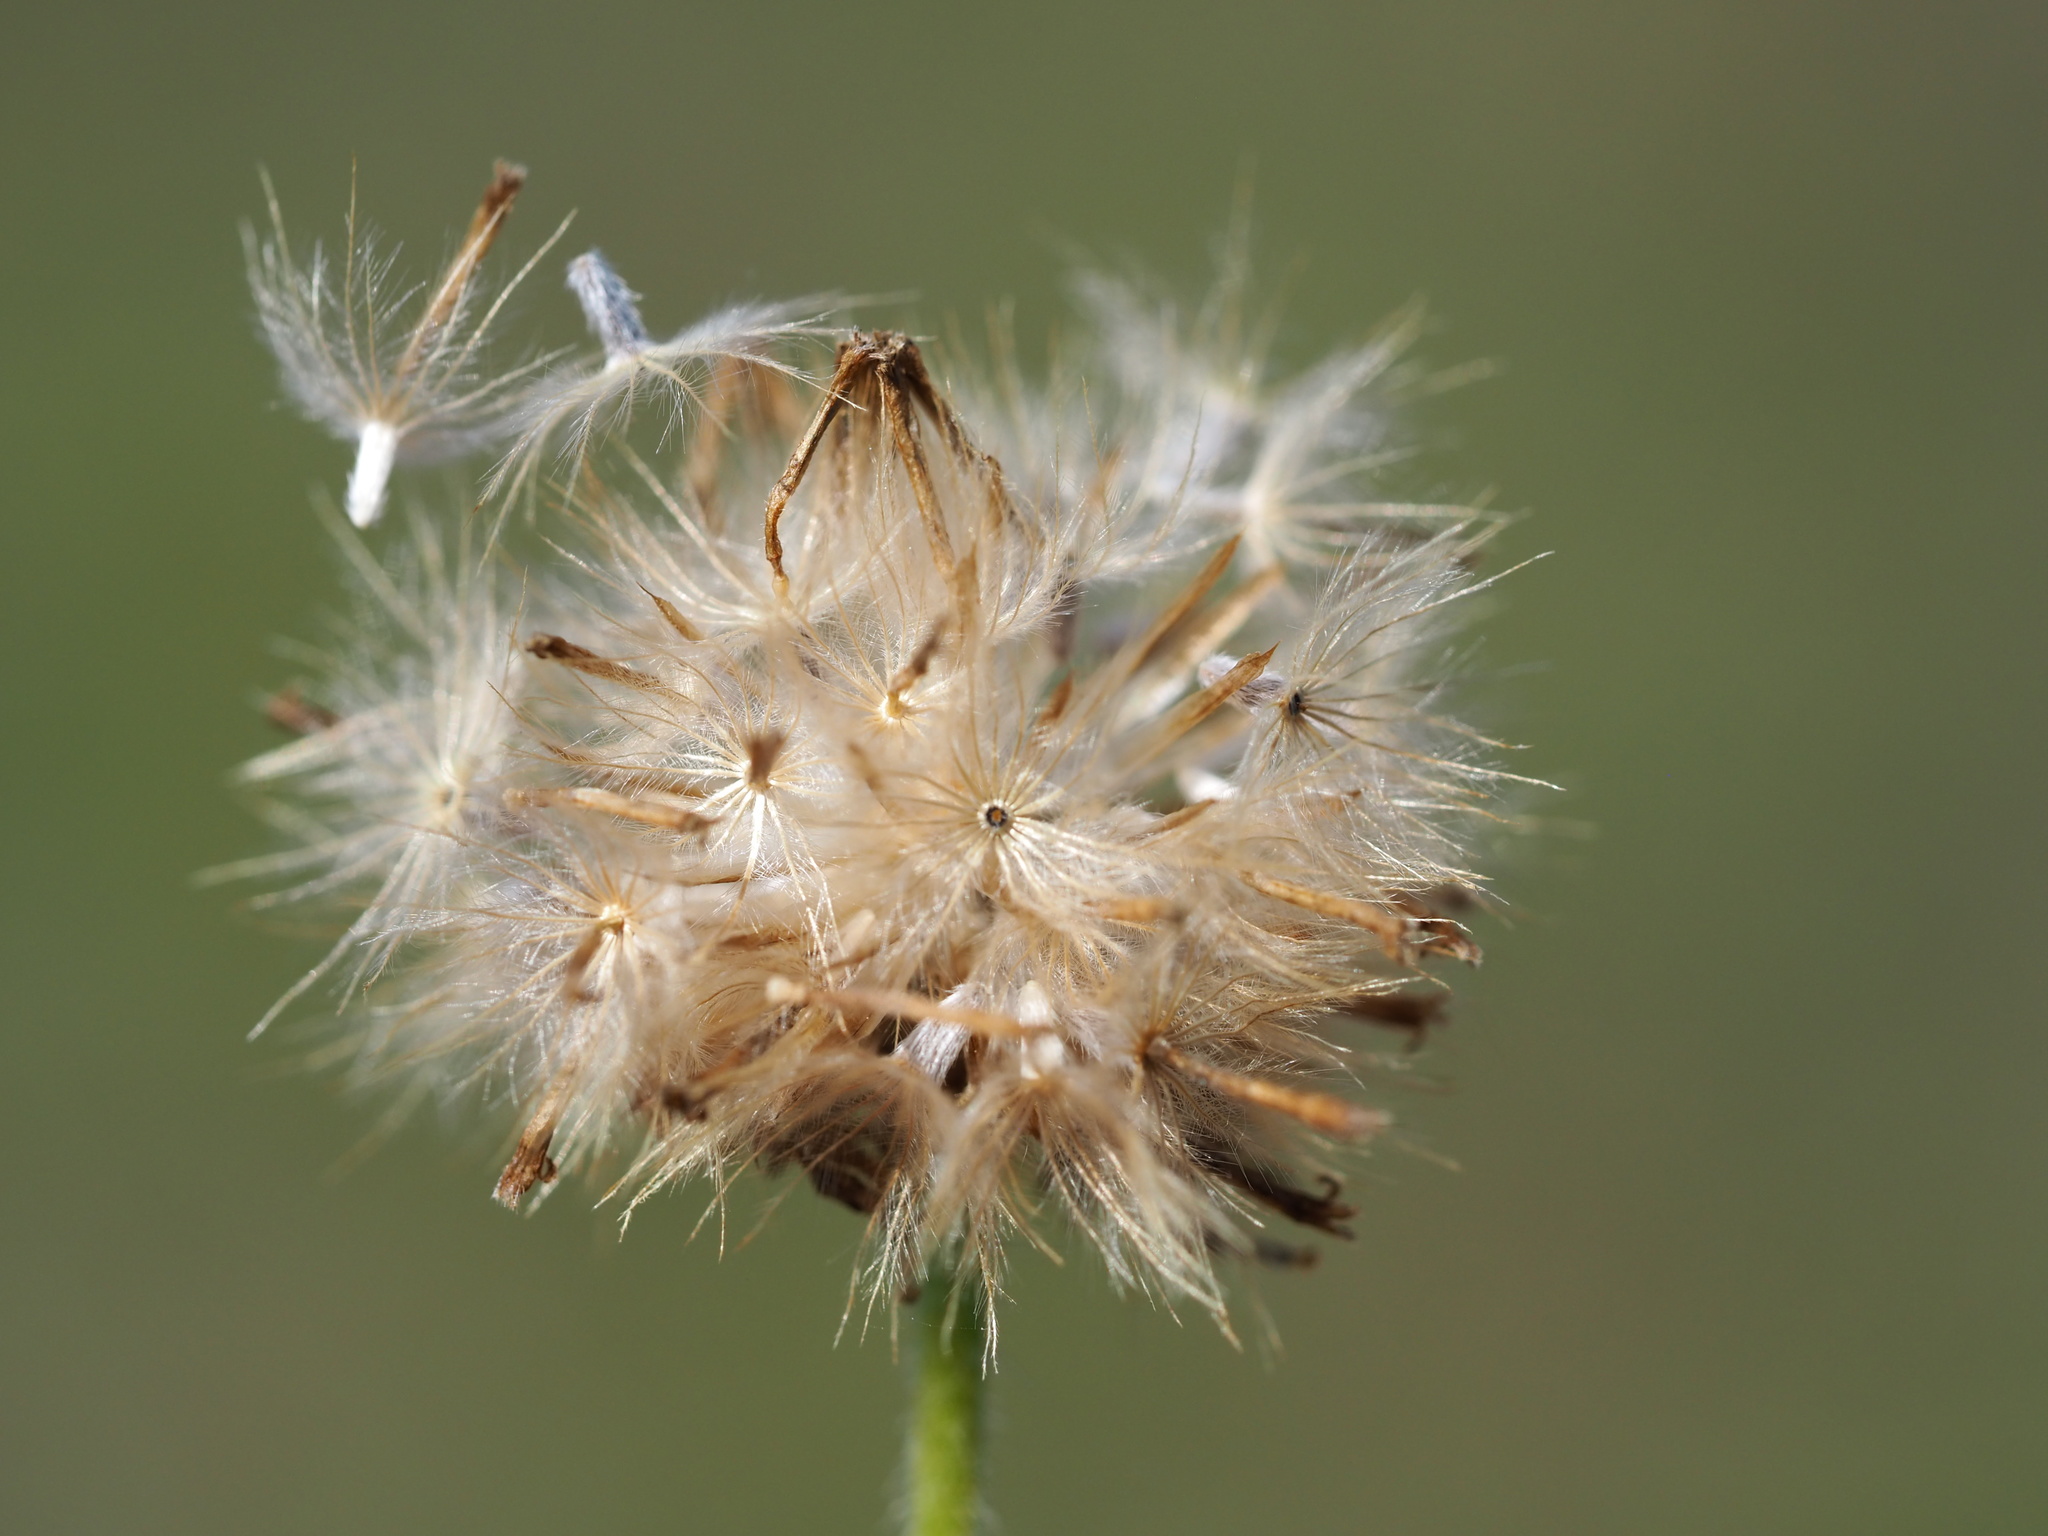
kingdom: Plantae
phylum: Tracheophyta
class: Magnoliopsida
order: Asterales
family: Asteraceae
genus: Tridax
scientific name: Tridax procumbens
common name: Coatbuttons
